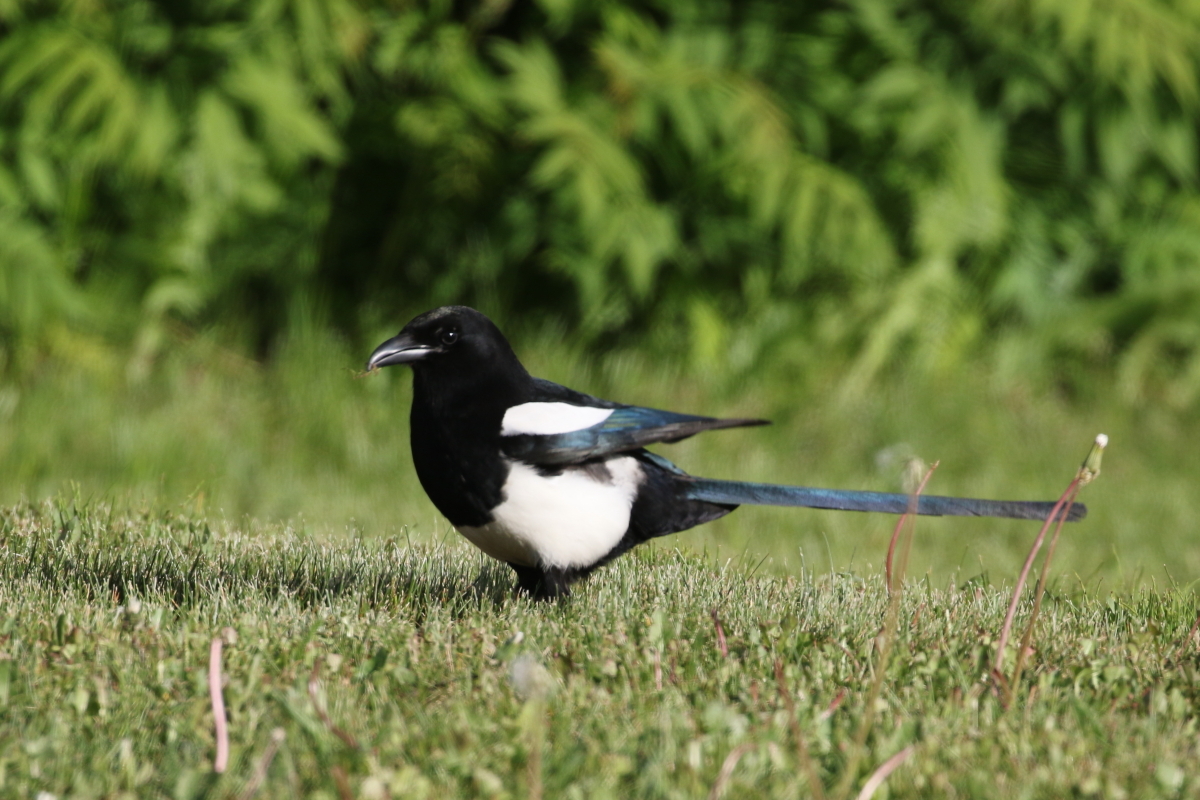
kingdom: Animalia
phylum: Chordata
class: Aves
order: Passeriformes
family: Corvidae
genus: Pica
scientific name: Pica hudsonia
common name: Black-billed magpie
